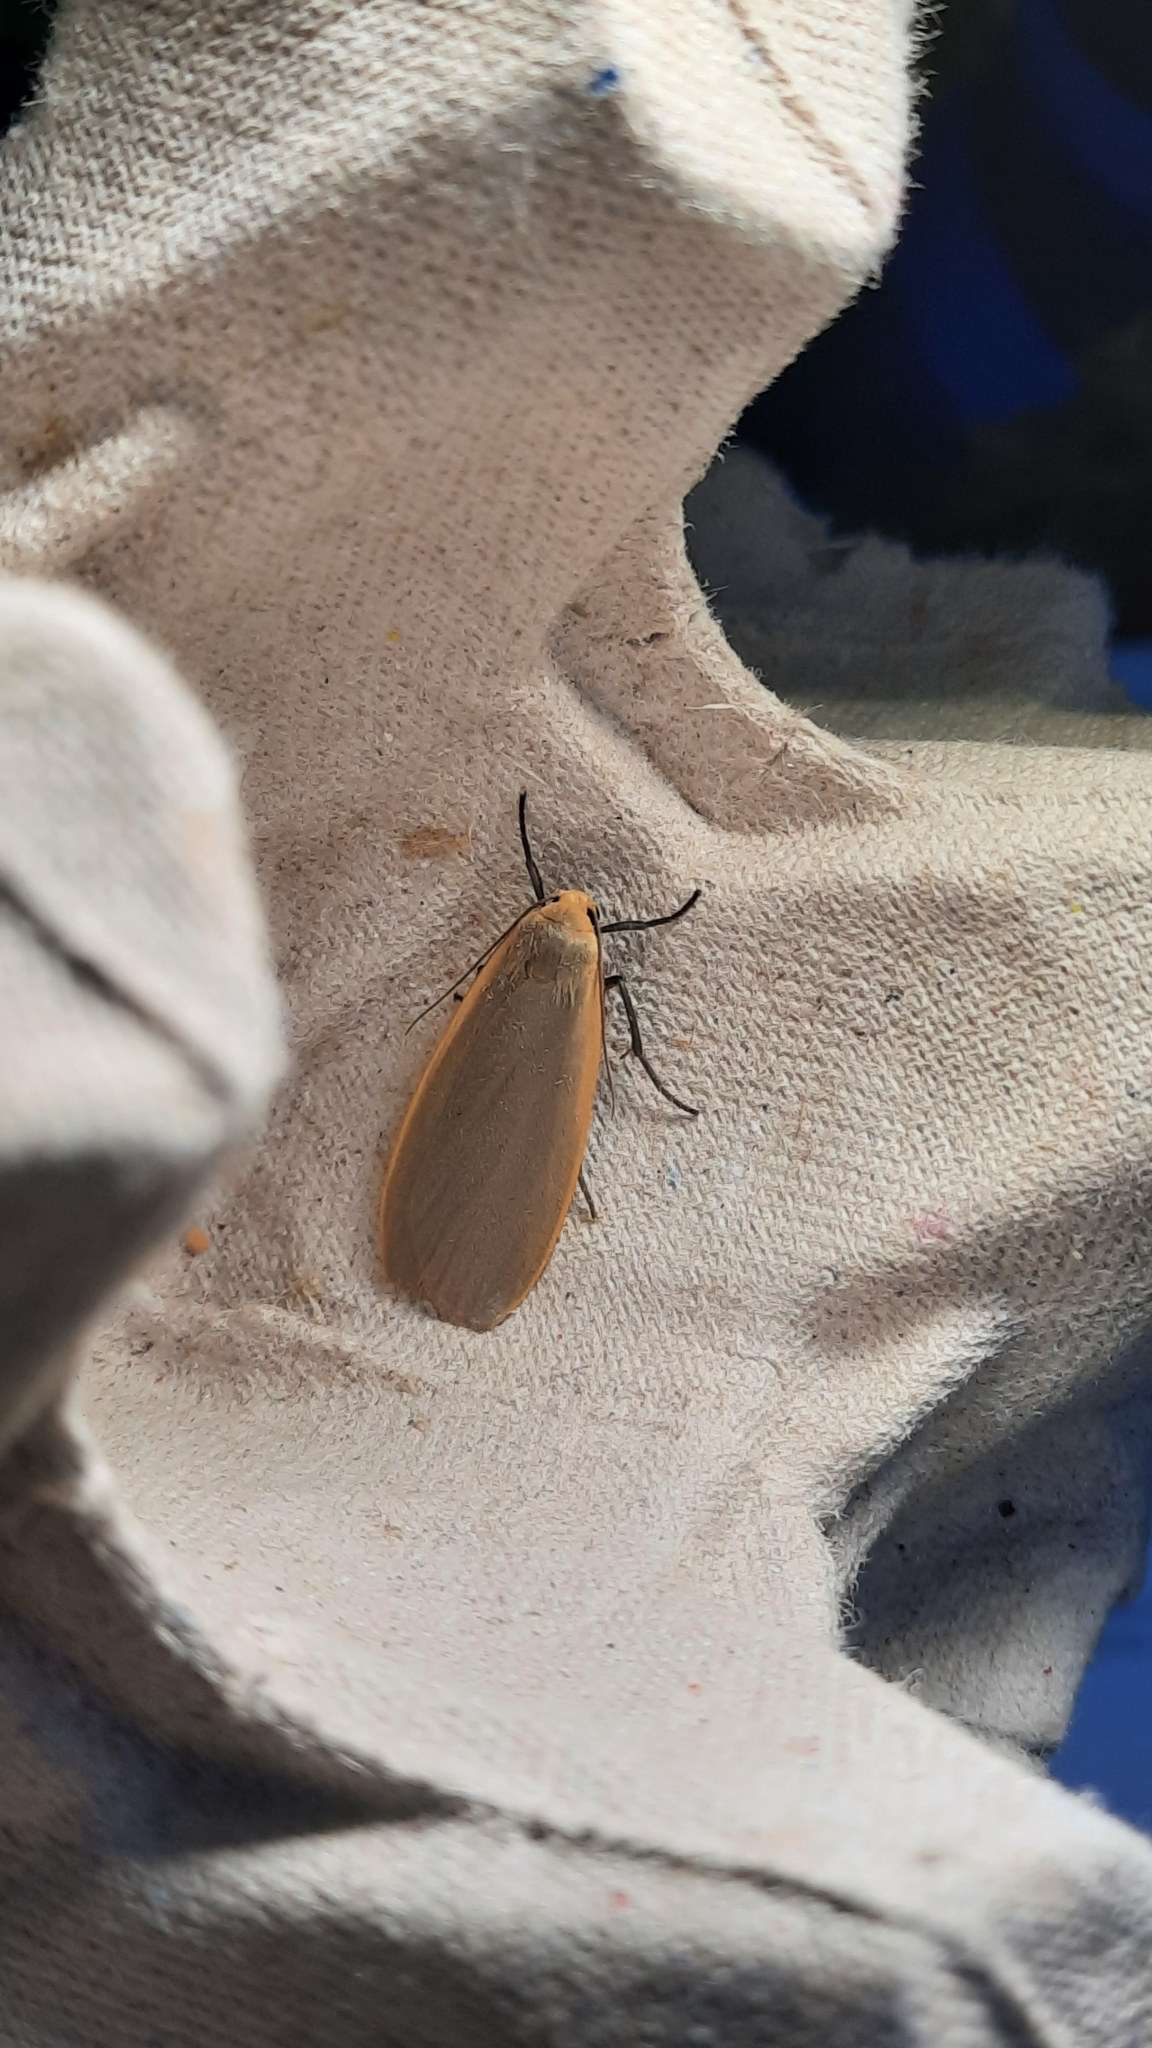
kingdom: Animalia
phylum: Arthropoda
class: Insecta
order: Lepidoptera
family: Erebidae
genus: Collita
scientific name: Collita griseola
